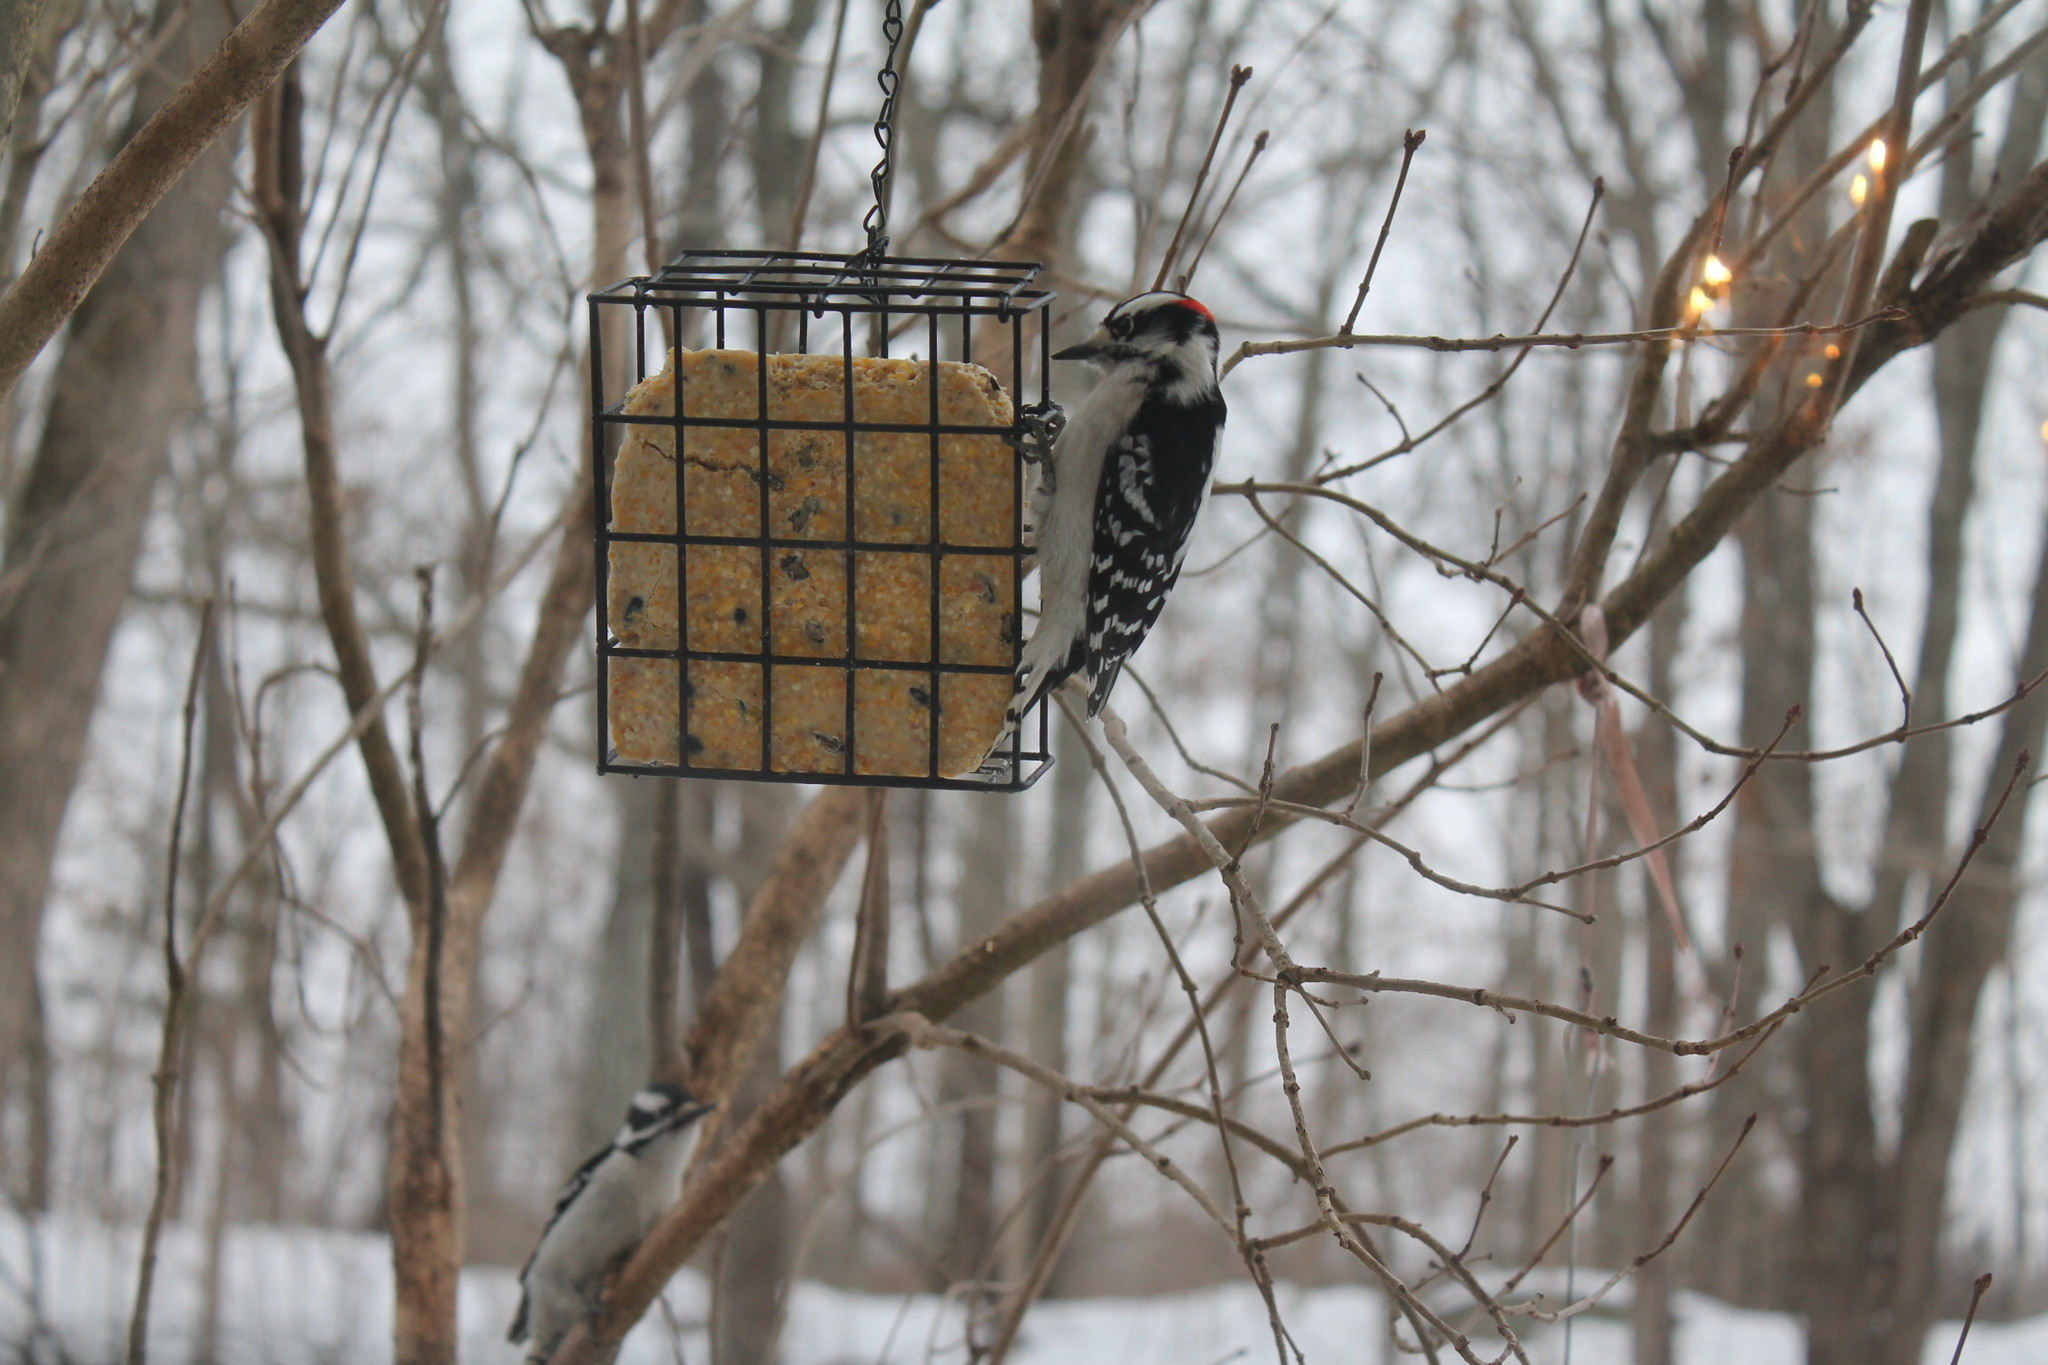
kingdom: Animalia
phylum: Chordata
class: Aves
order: Piciformes
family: Picidae
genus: Dryobates
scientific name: Dryobates pubescens
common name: Downy woodpecker
